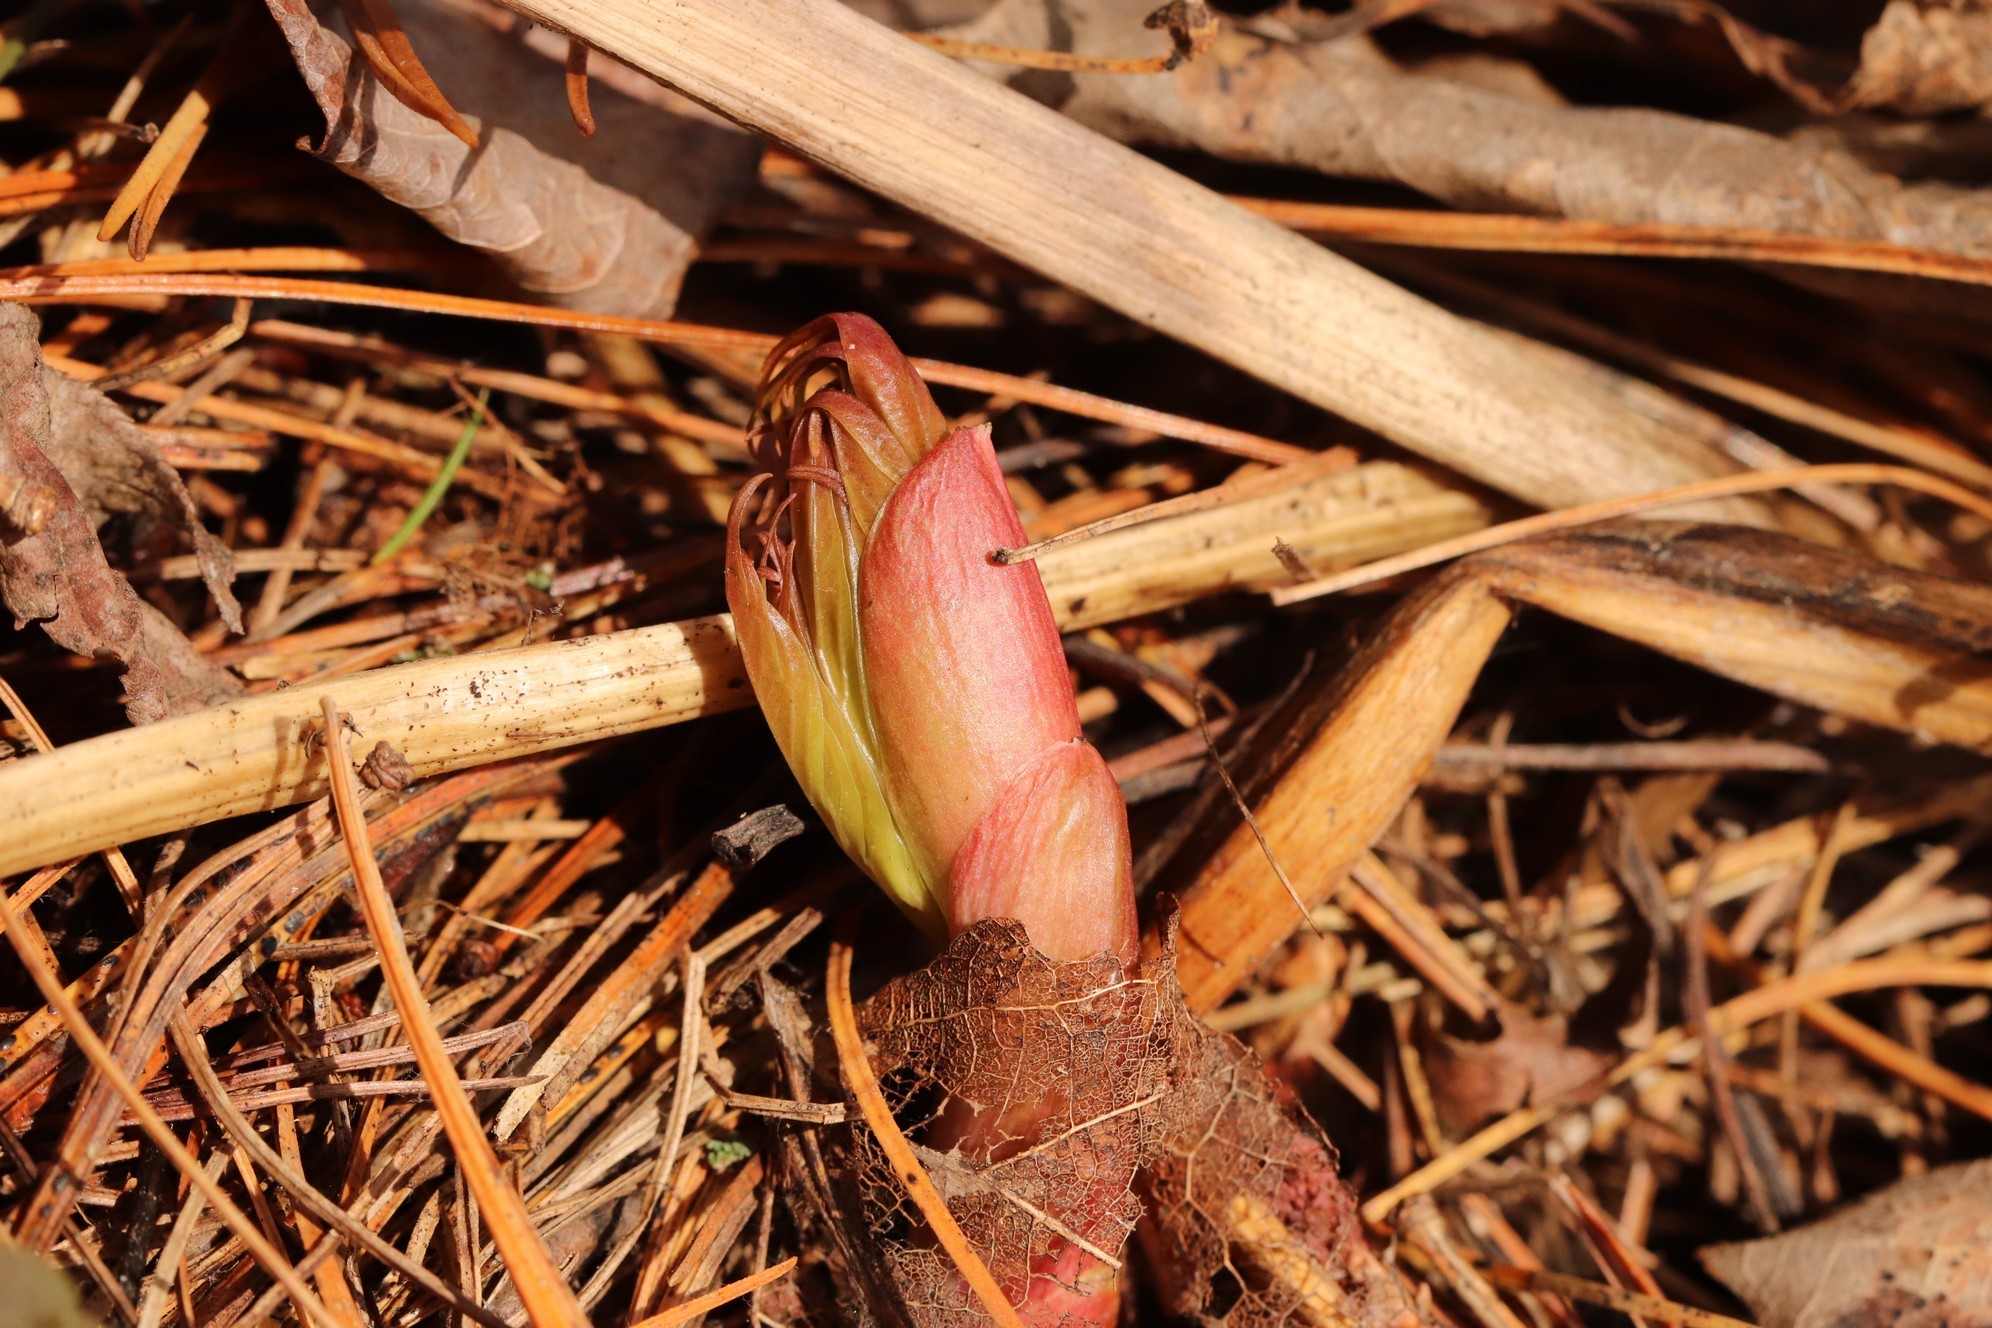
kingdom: Plantae
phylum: Tracheophyta
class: Magnoliopsida
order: Saxifragales
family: Paeoniaceae
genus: Paeonia
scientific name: Paeonia anomala
